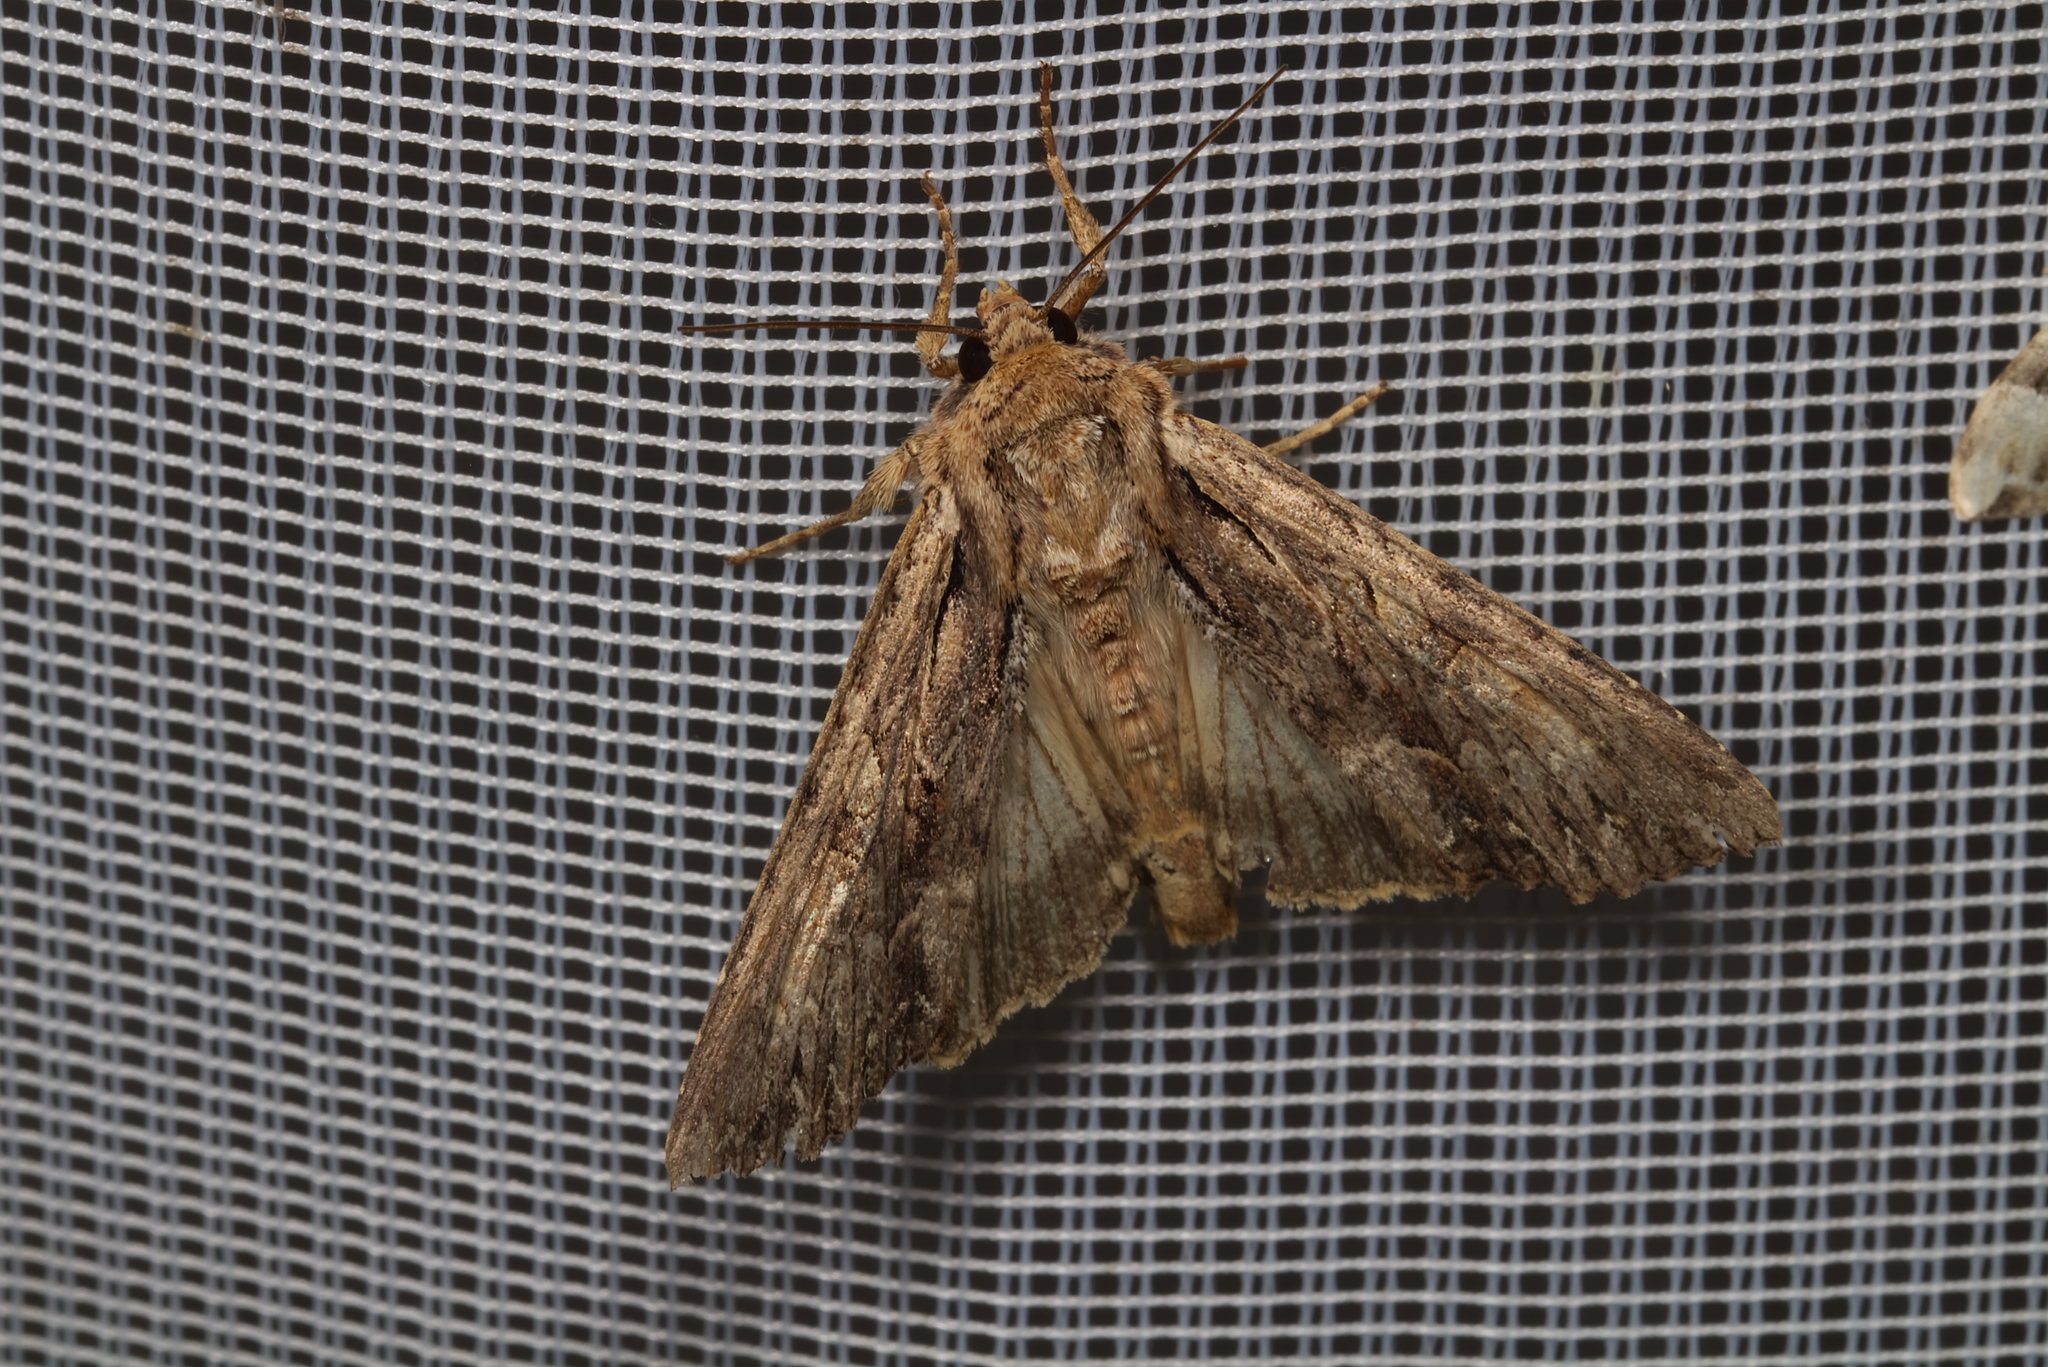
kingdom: Animalia
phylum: Arthropoda
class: Insecta
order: Lepidoptera
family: Noctuidae
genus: Apamea
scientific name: Apamea monoglypha
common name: Dark arches
